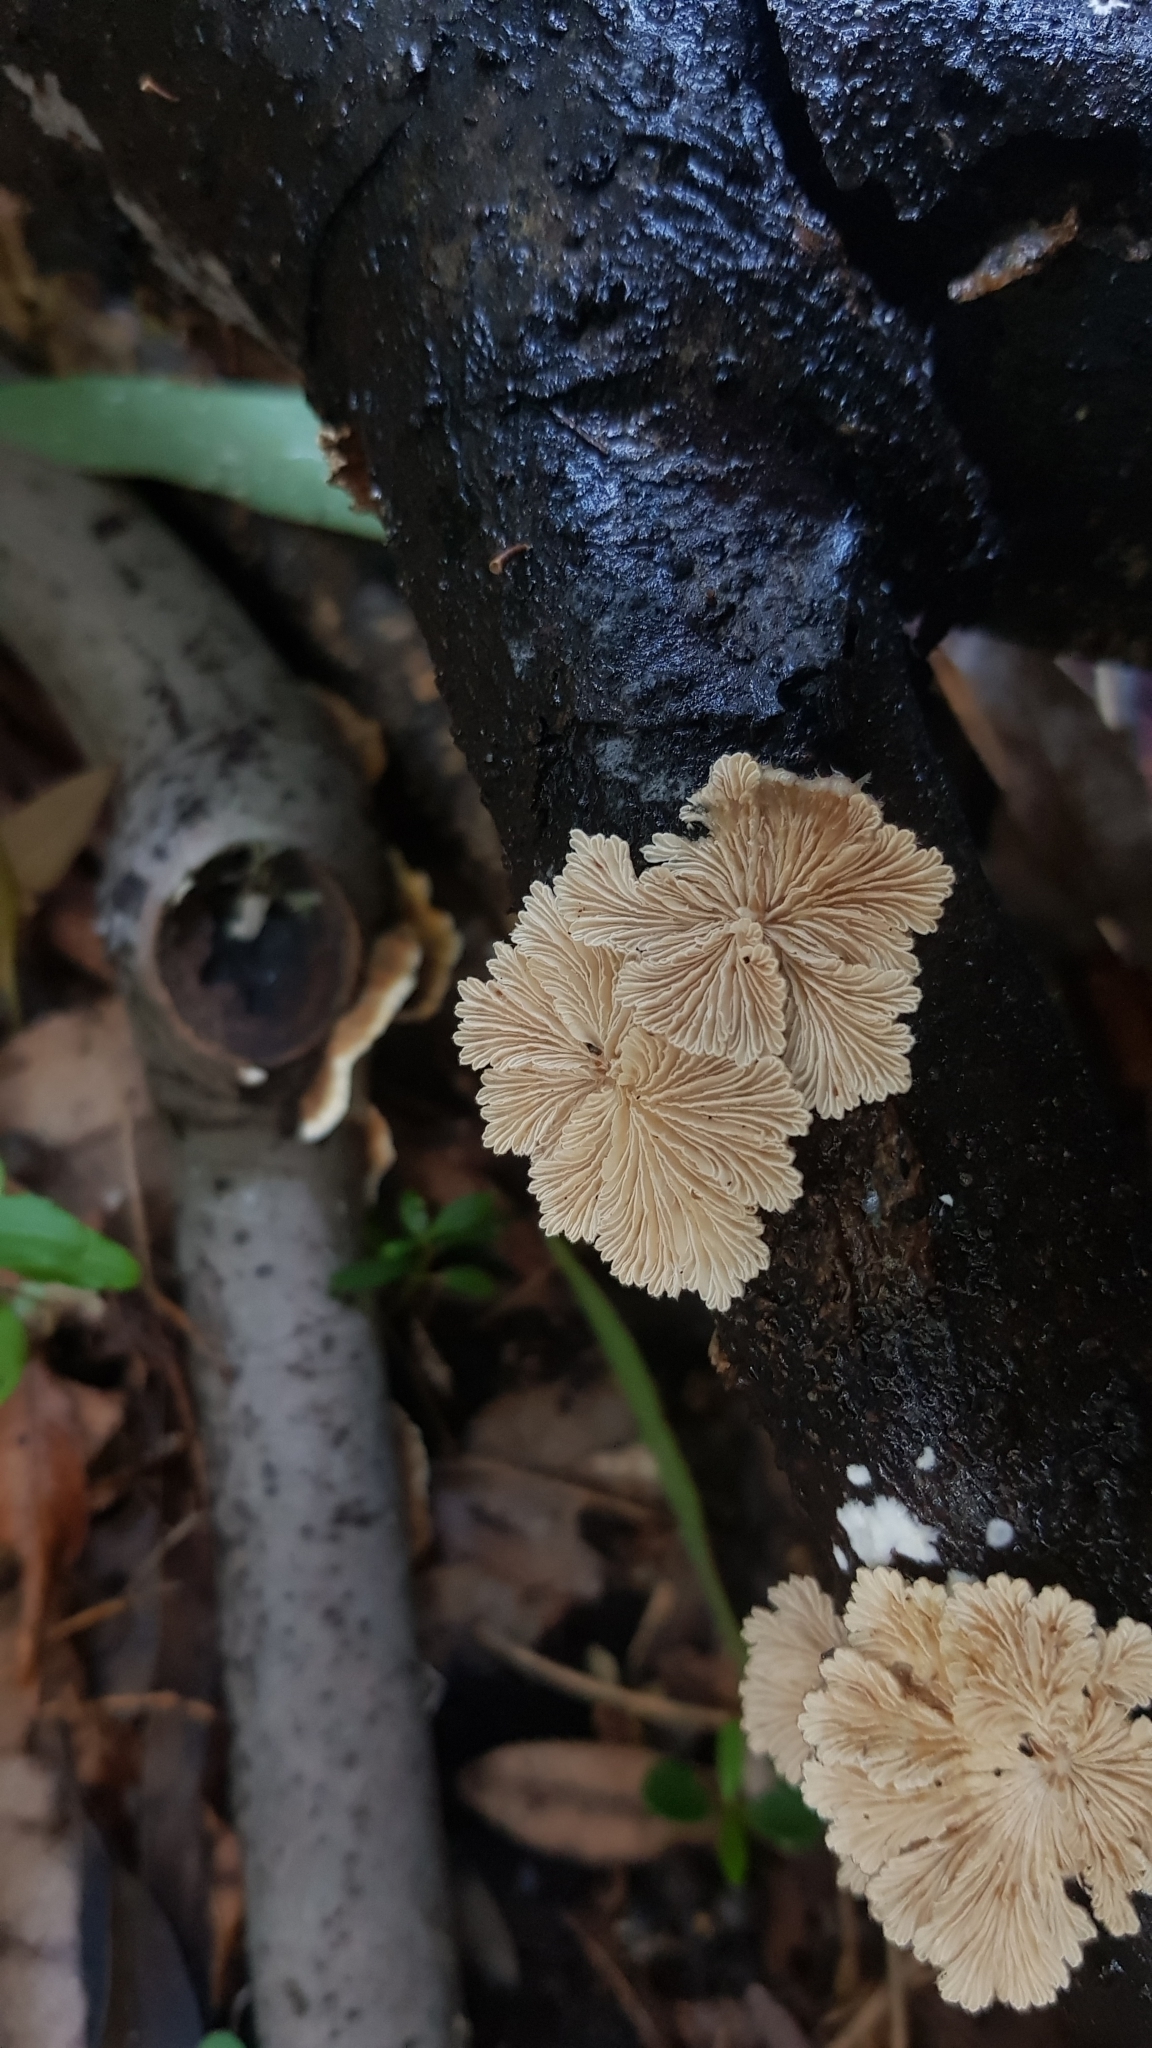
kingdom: Fungi
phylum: Basidiomycota
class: Agaricomycetes
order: Agaricales
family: Schizophyllaceae
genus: Schizophyllum
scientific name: Schizophyllum commune
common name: Common porecrust
